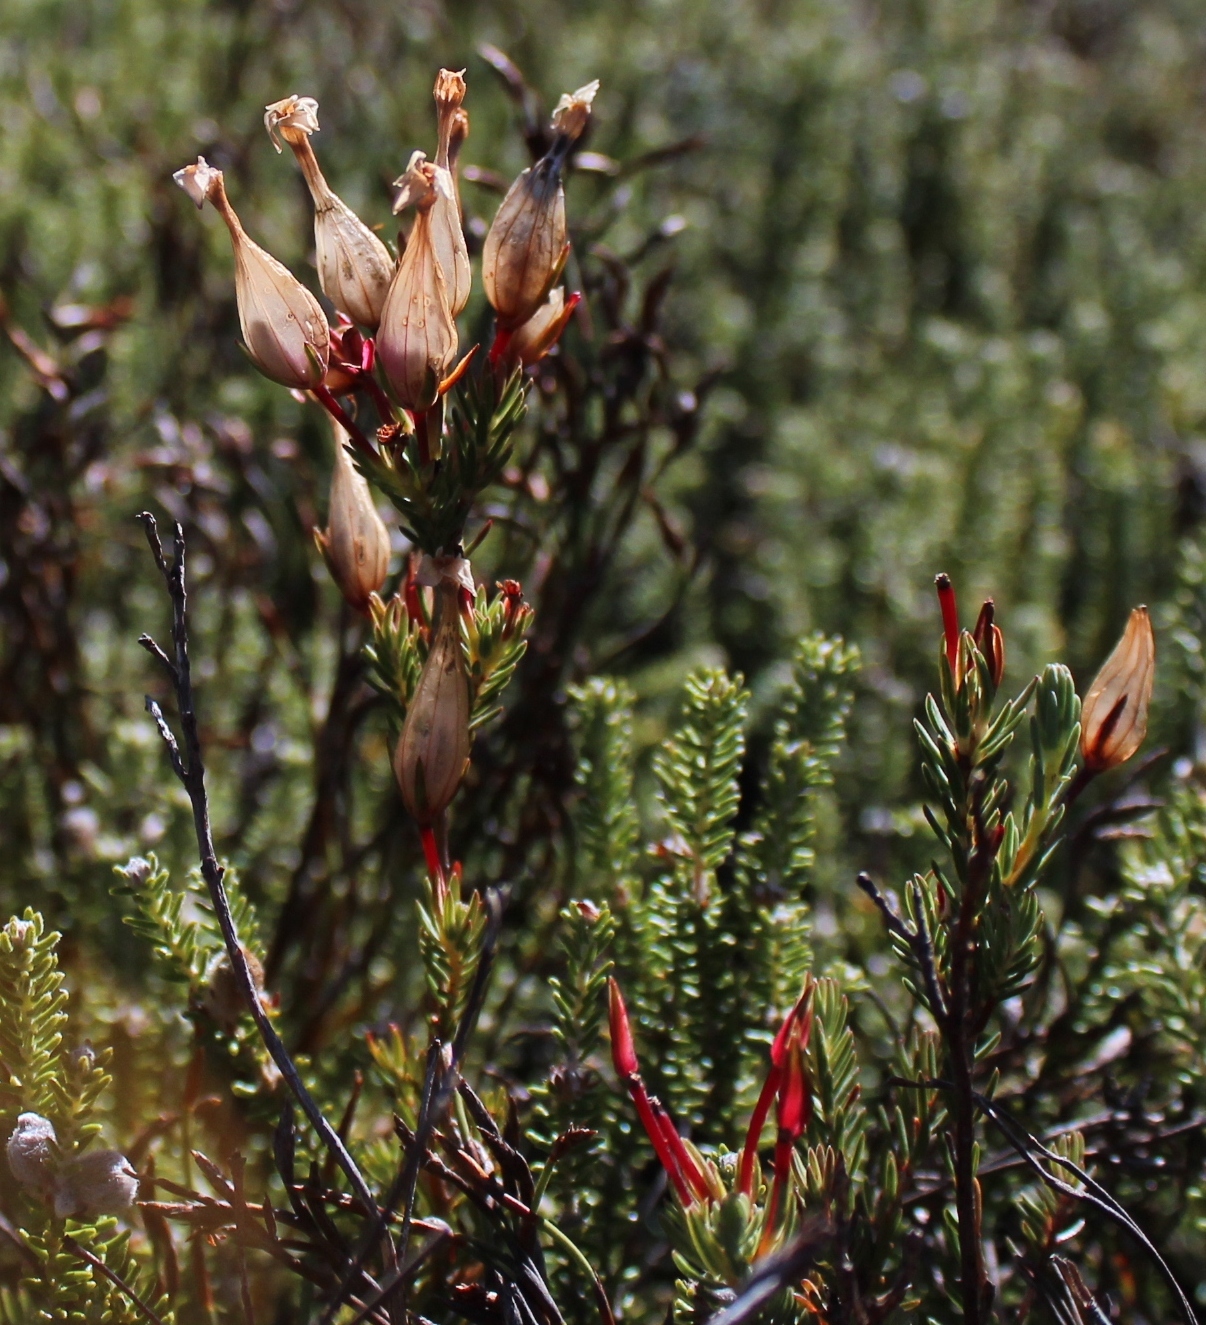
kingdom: Plantae
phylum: Tracheophyta
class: Magnoliopsida
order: Ericales
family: Ericaceae
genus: Erica
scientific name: Erica junonia
